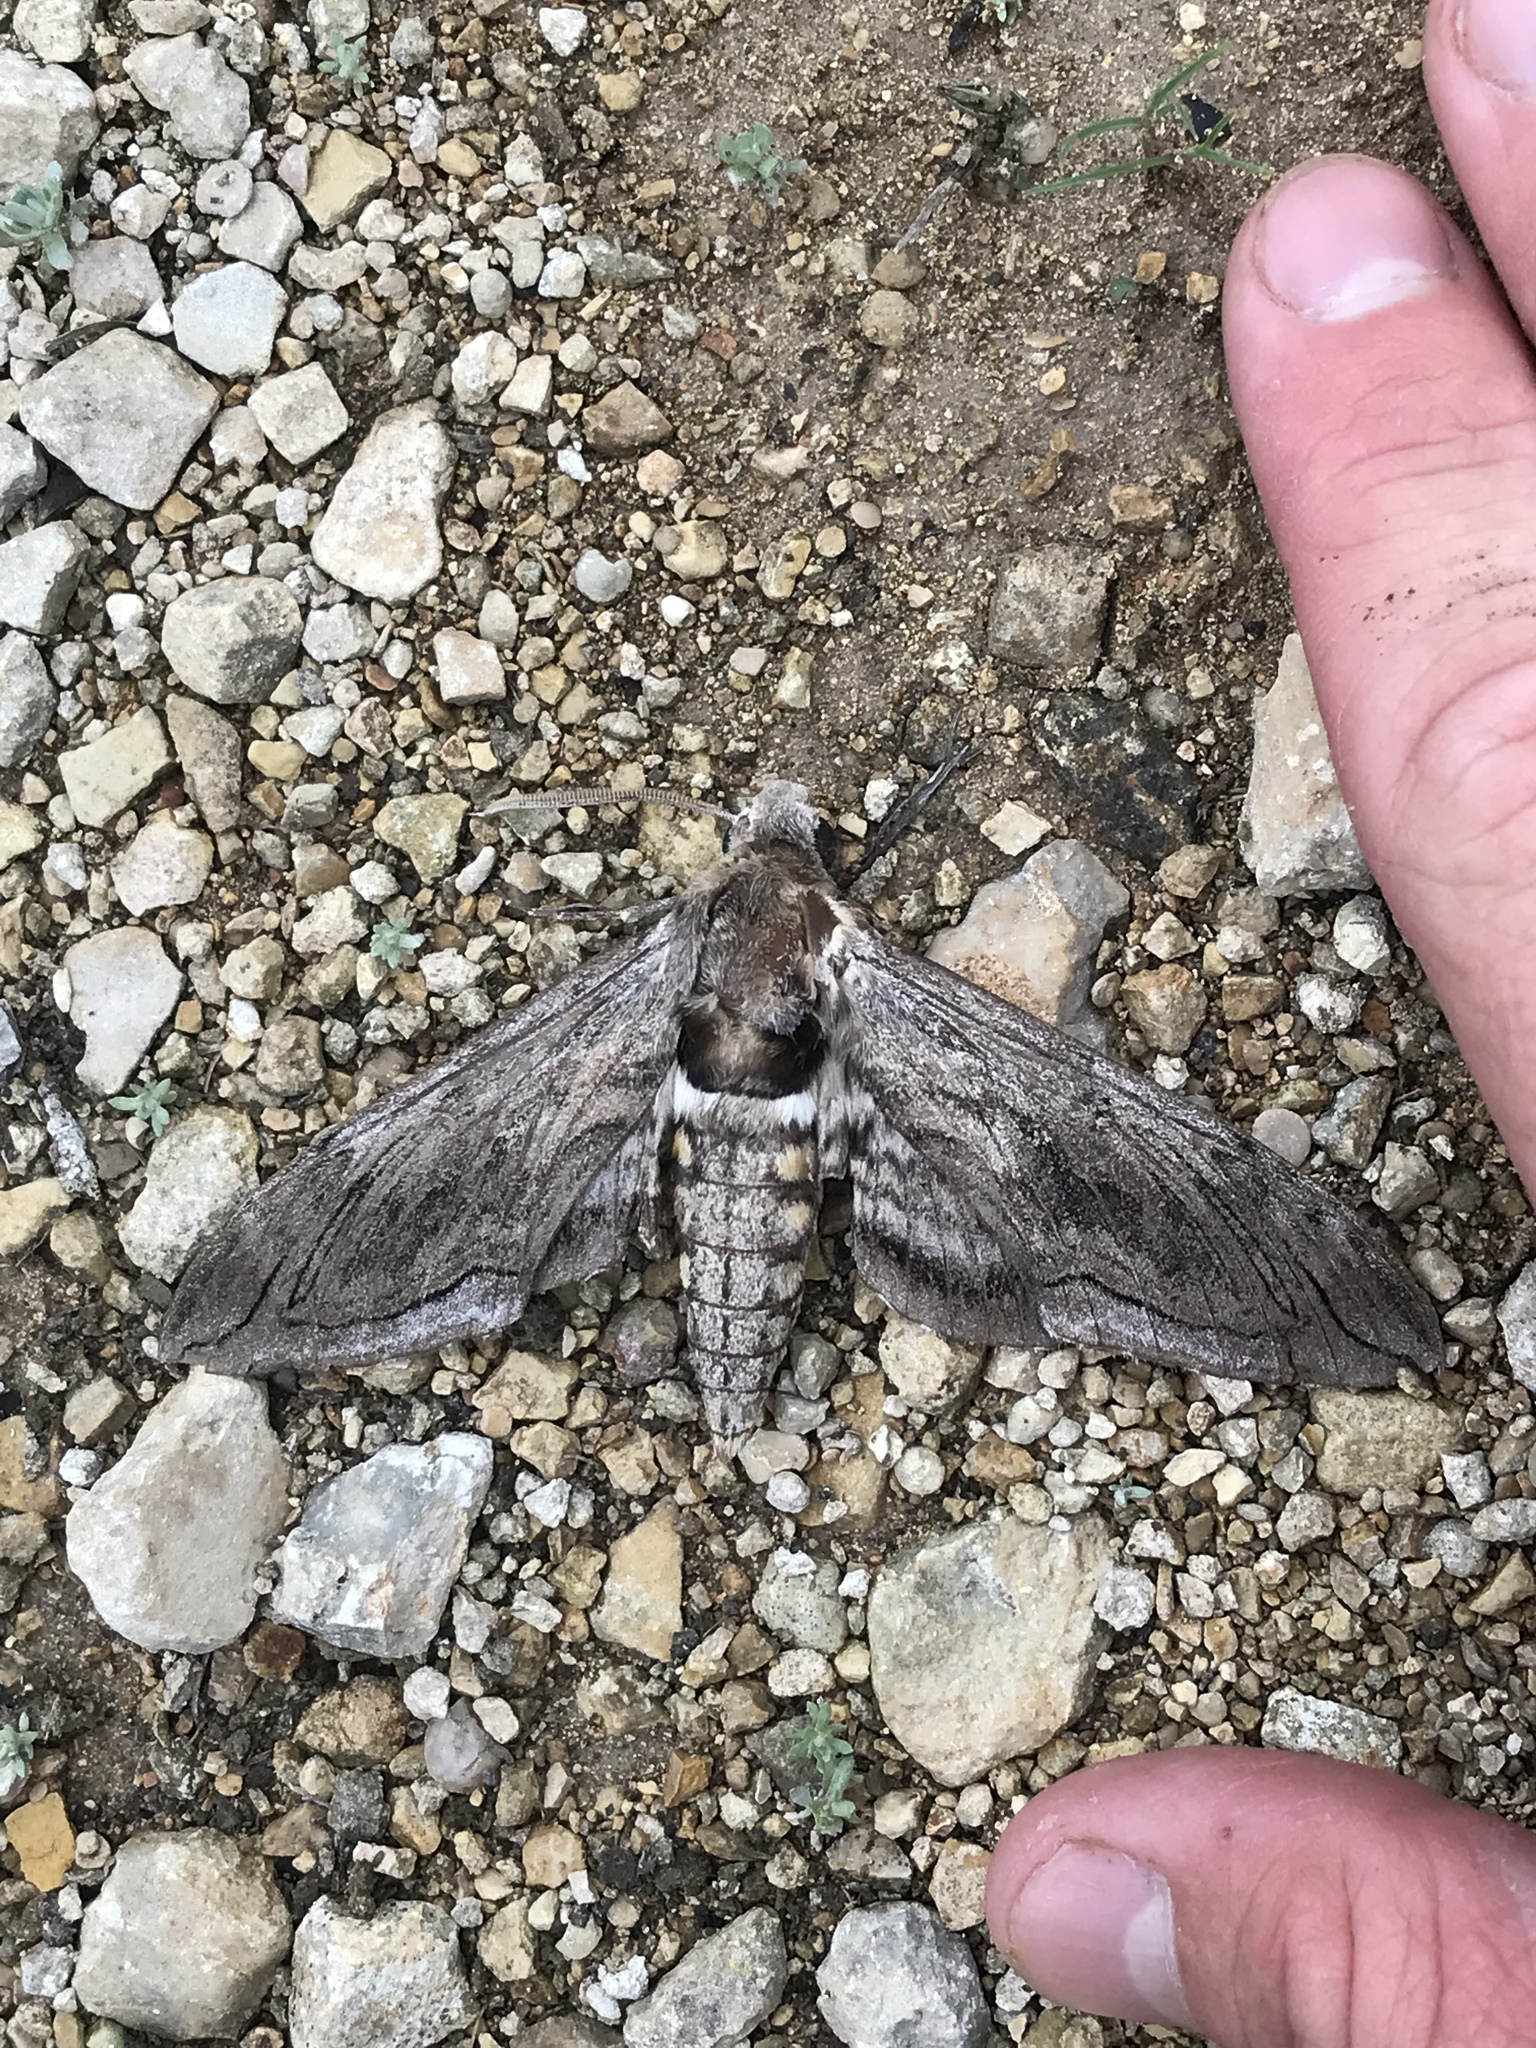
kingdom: Animalia
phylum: Arthropoda
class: Insecta
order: Lepidoptera
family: Sphingidae
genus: Manduca
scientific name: Manduca quinquemaculatus
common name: Five-spotted hawk-moth
